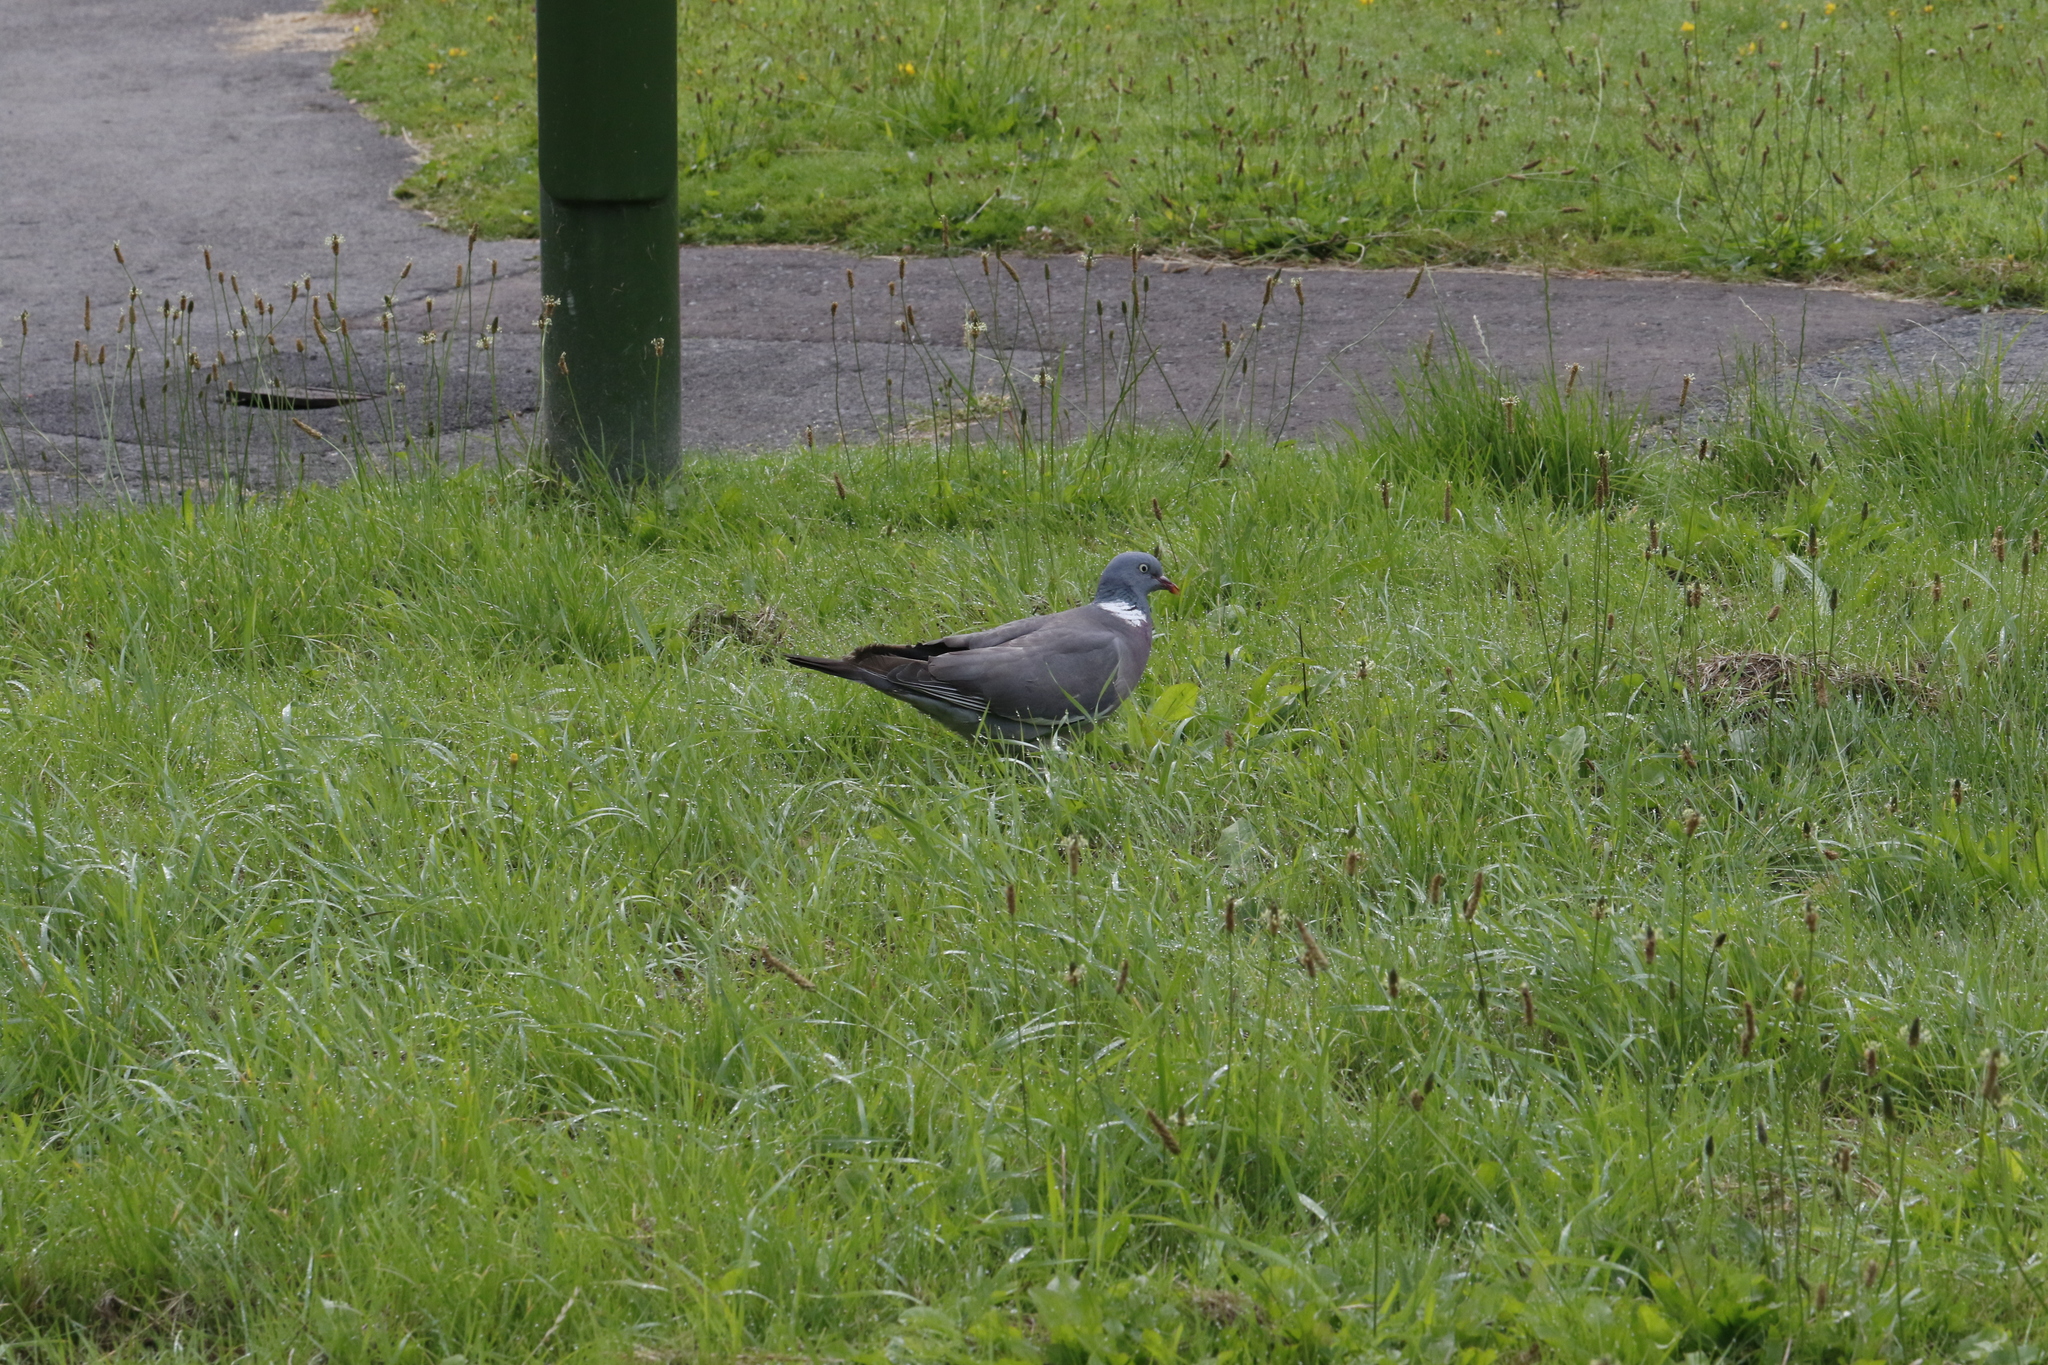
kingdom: Animalia
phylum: Chordata
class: Aves
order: Columbiformes
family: Columbidae
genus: Columba
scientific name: Columba palumbus
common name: Common wood pigeon
